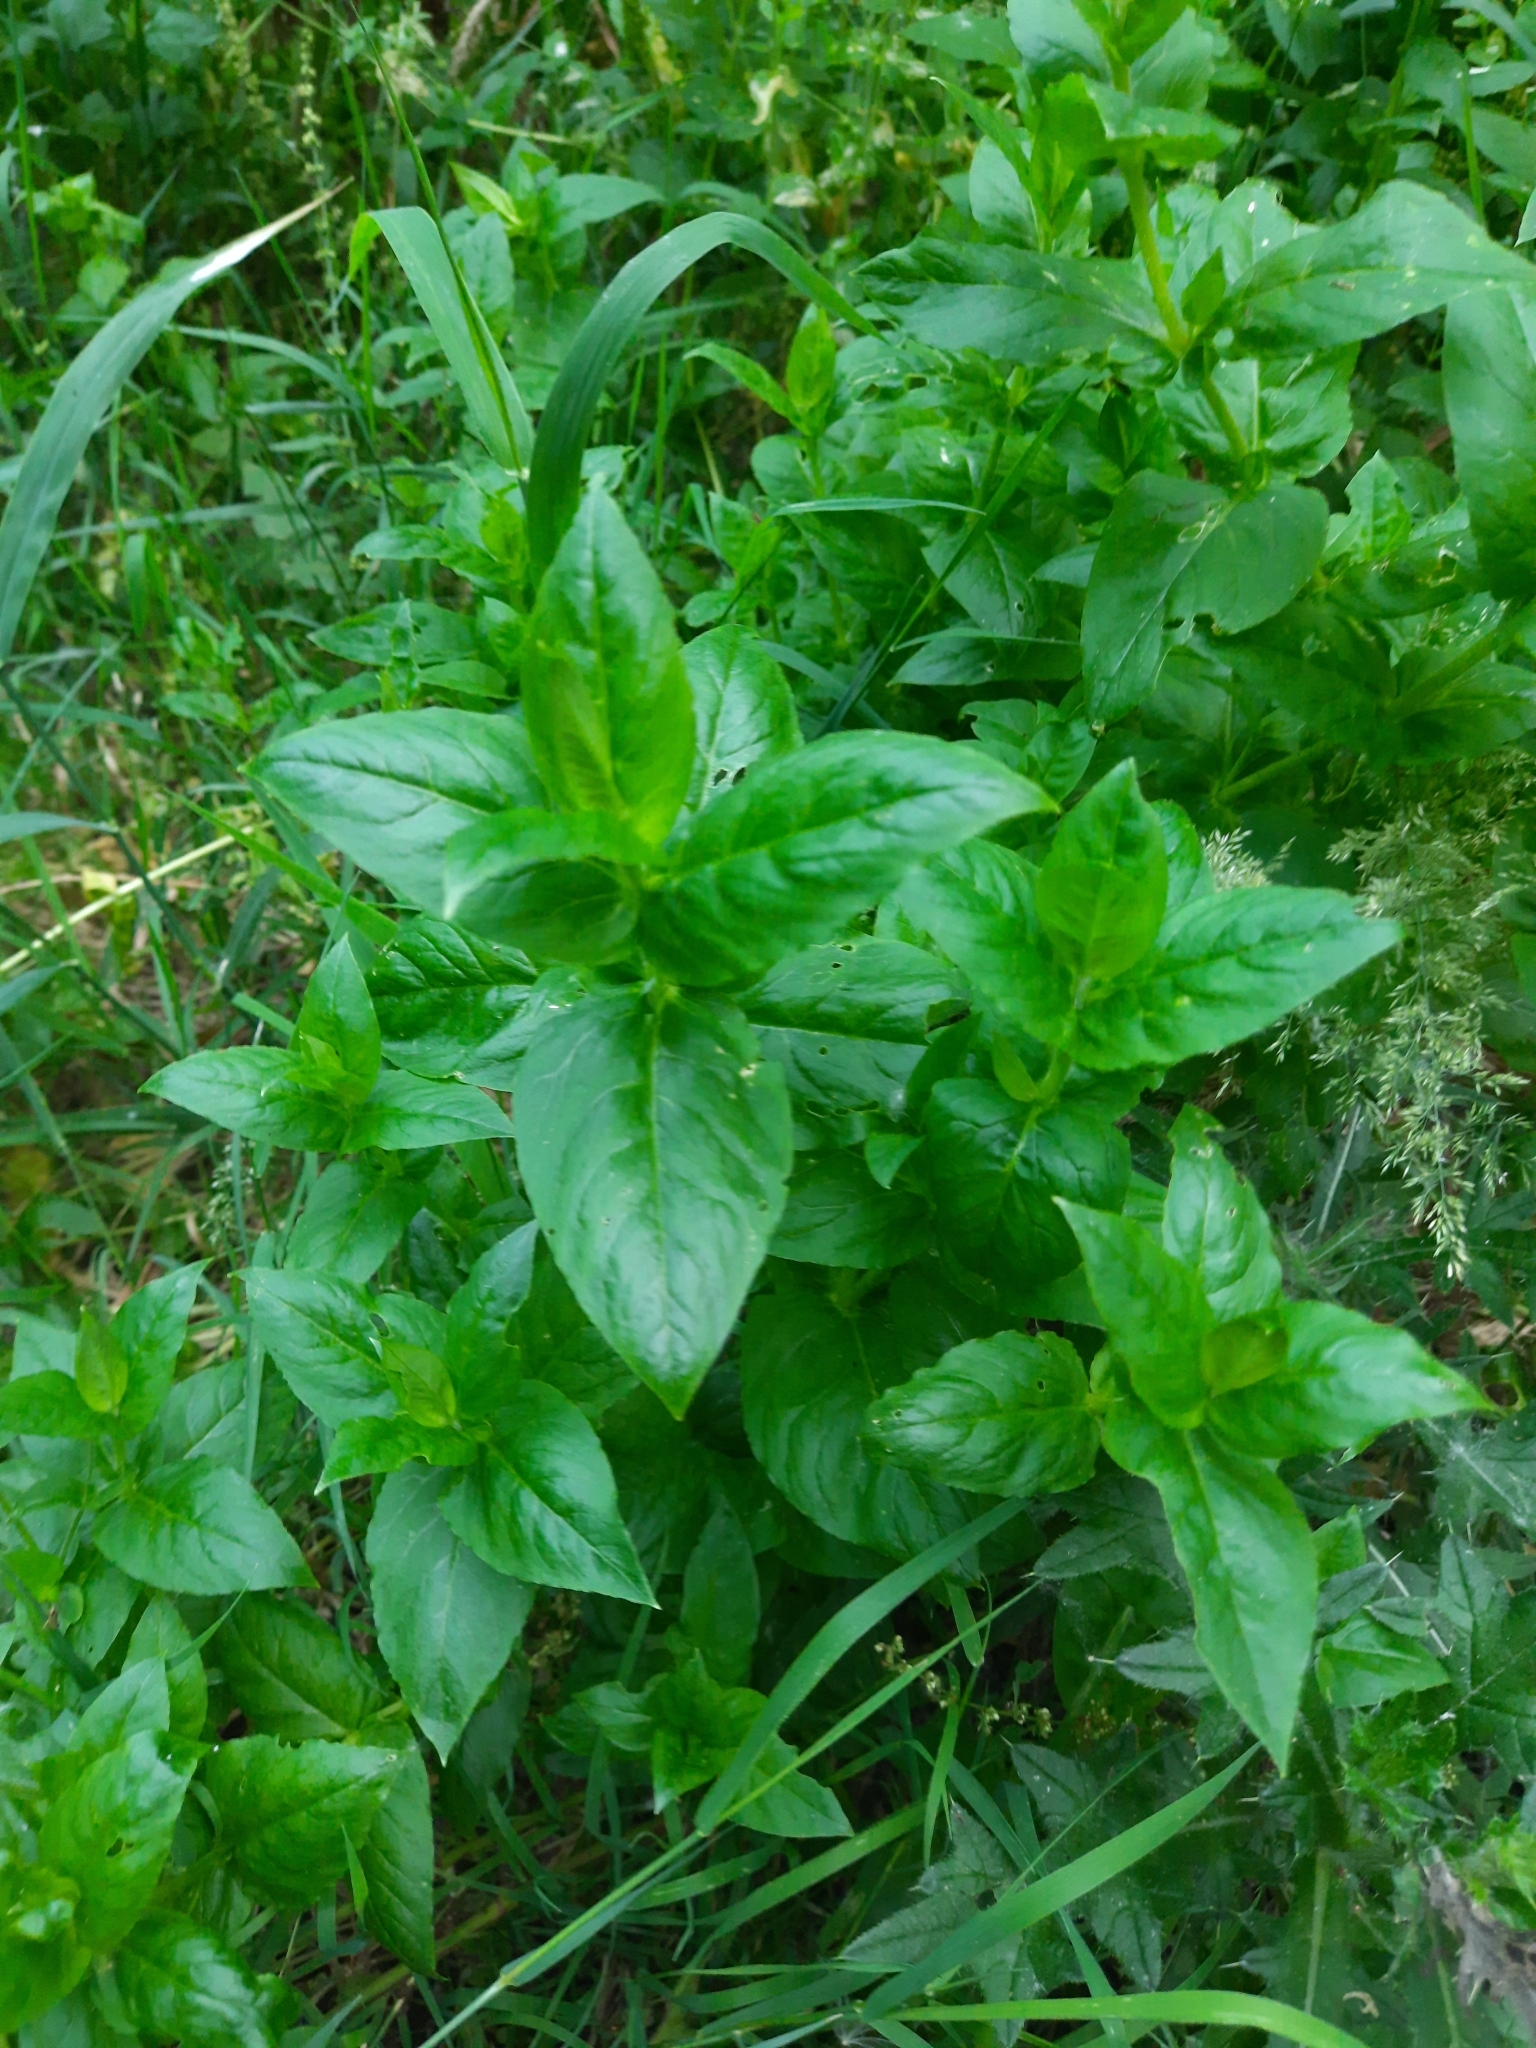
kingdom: Plantae
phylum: Tracheophyta
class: Magnoliopsida
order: Caryophyllales
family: Caryophyllaceae
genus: Stellaria
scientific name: Stellaria aquatica
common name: Water chickweed
